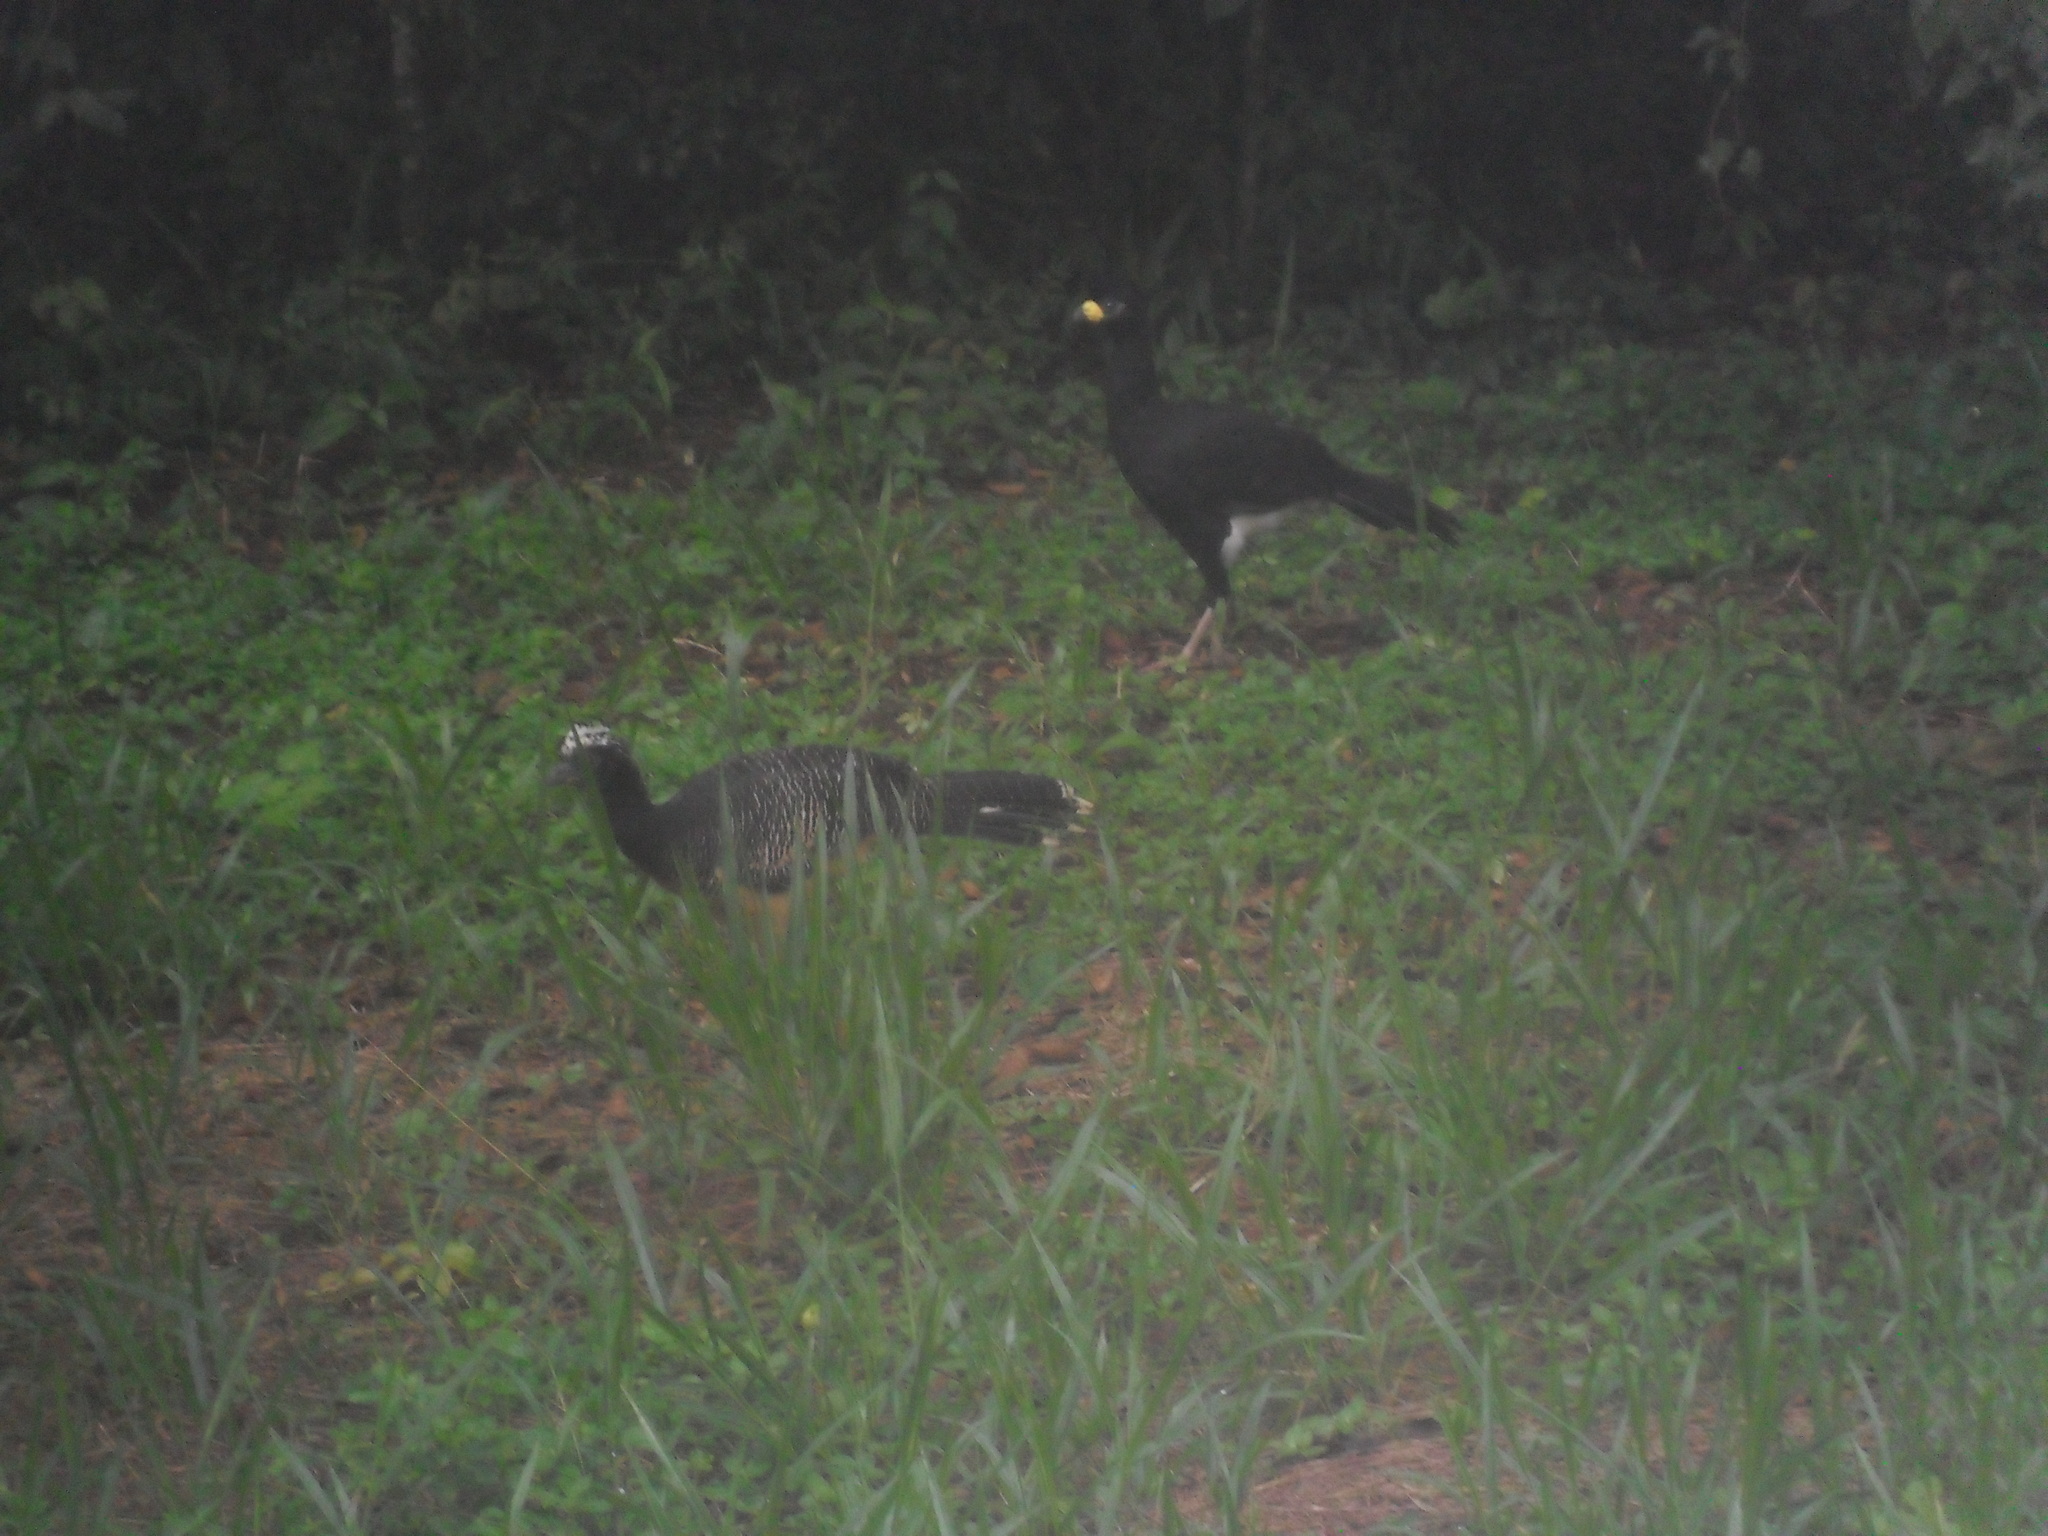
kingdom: Animalia
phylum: Chordata
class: Aves
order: Galliformes
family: Cracidae
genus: Crax
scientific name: Crax fasciolata
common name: Bare-faced curassow
